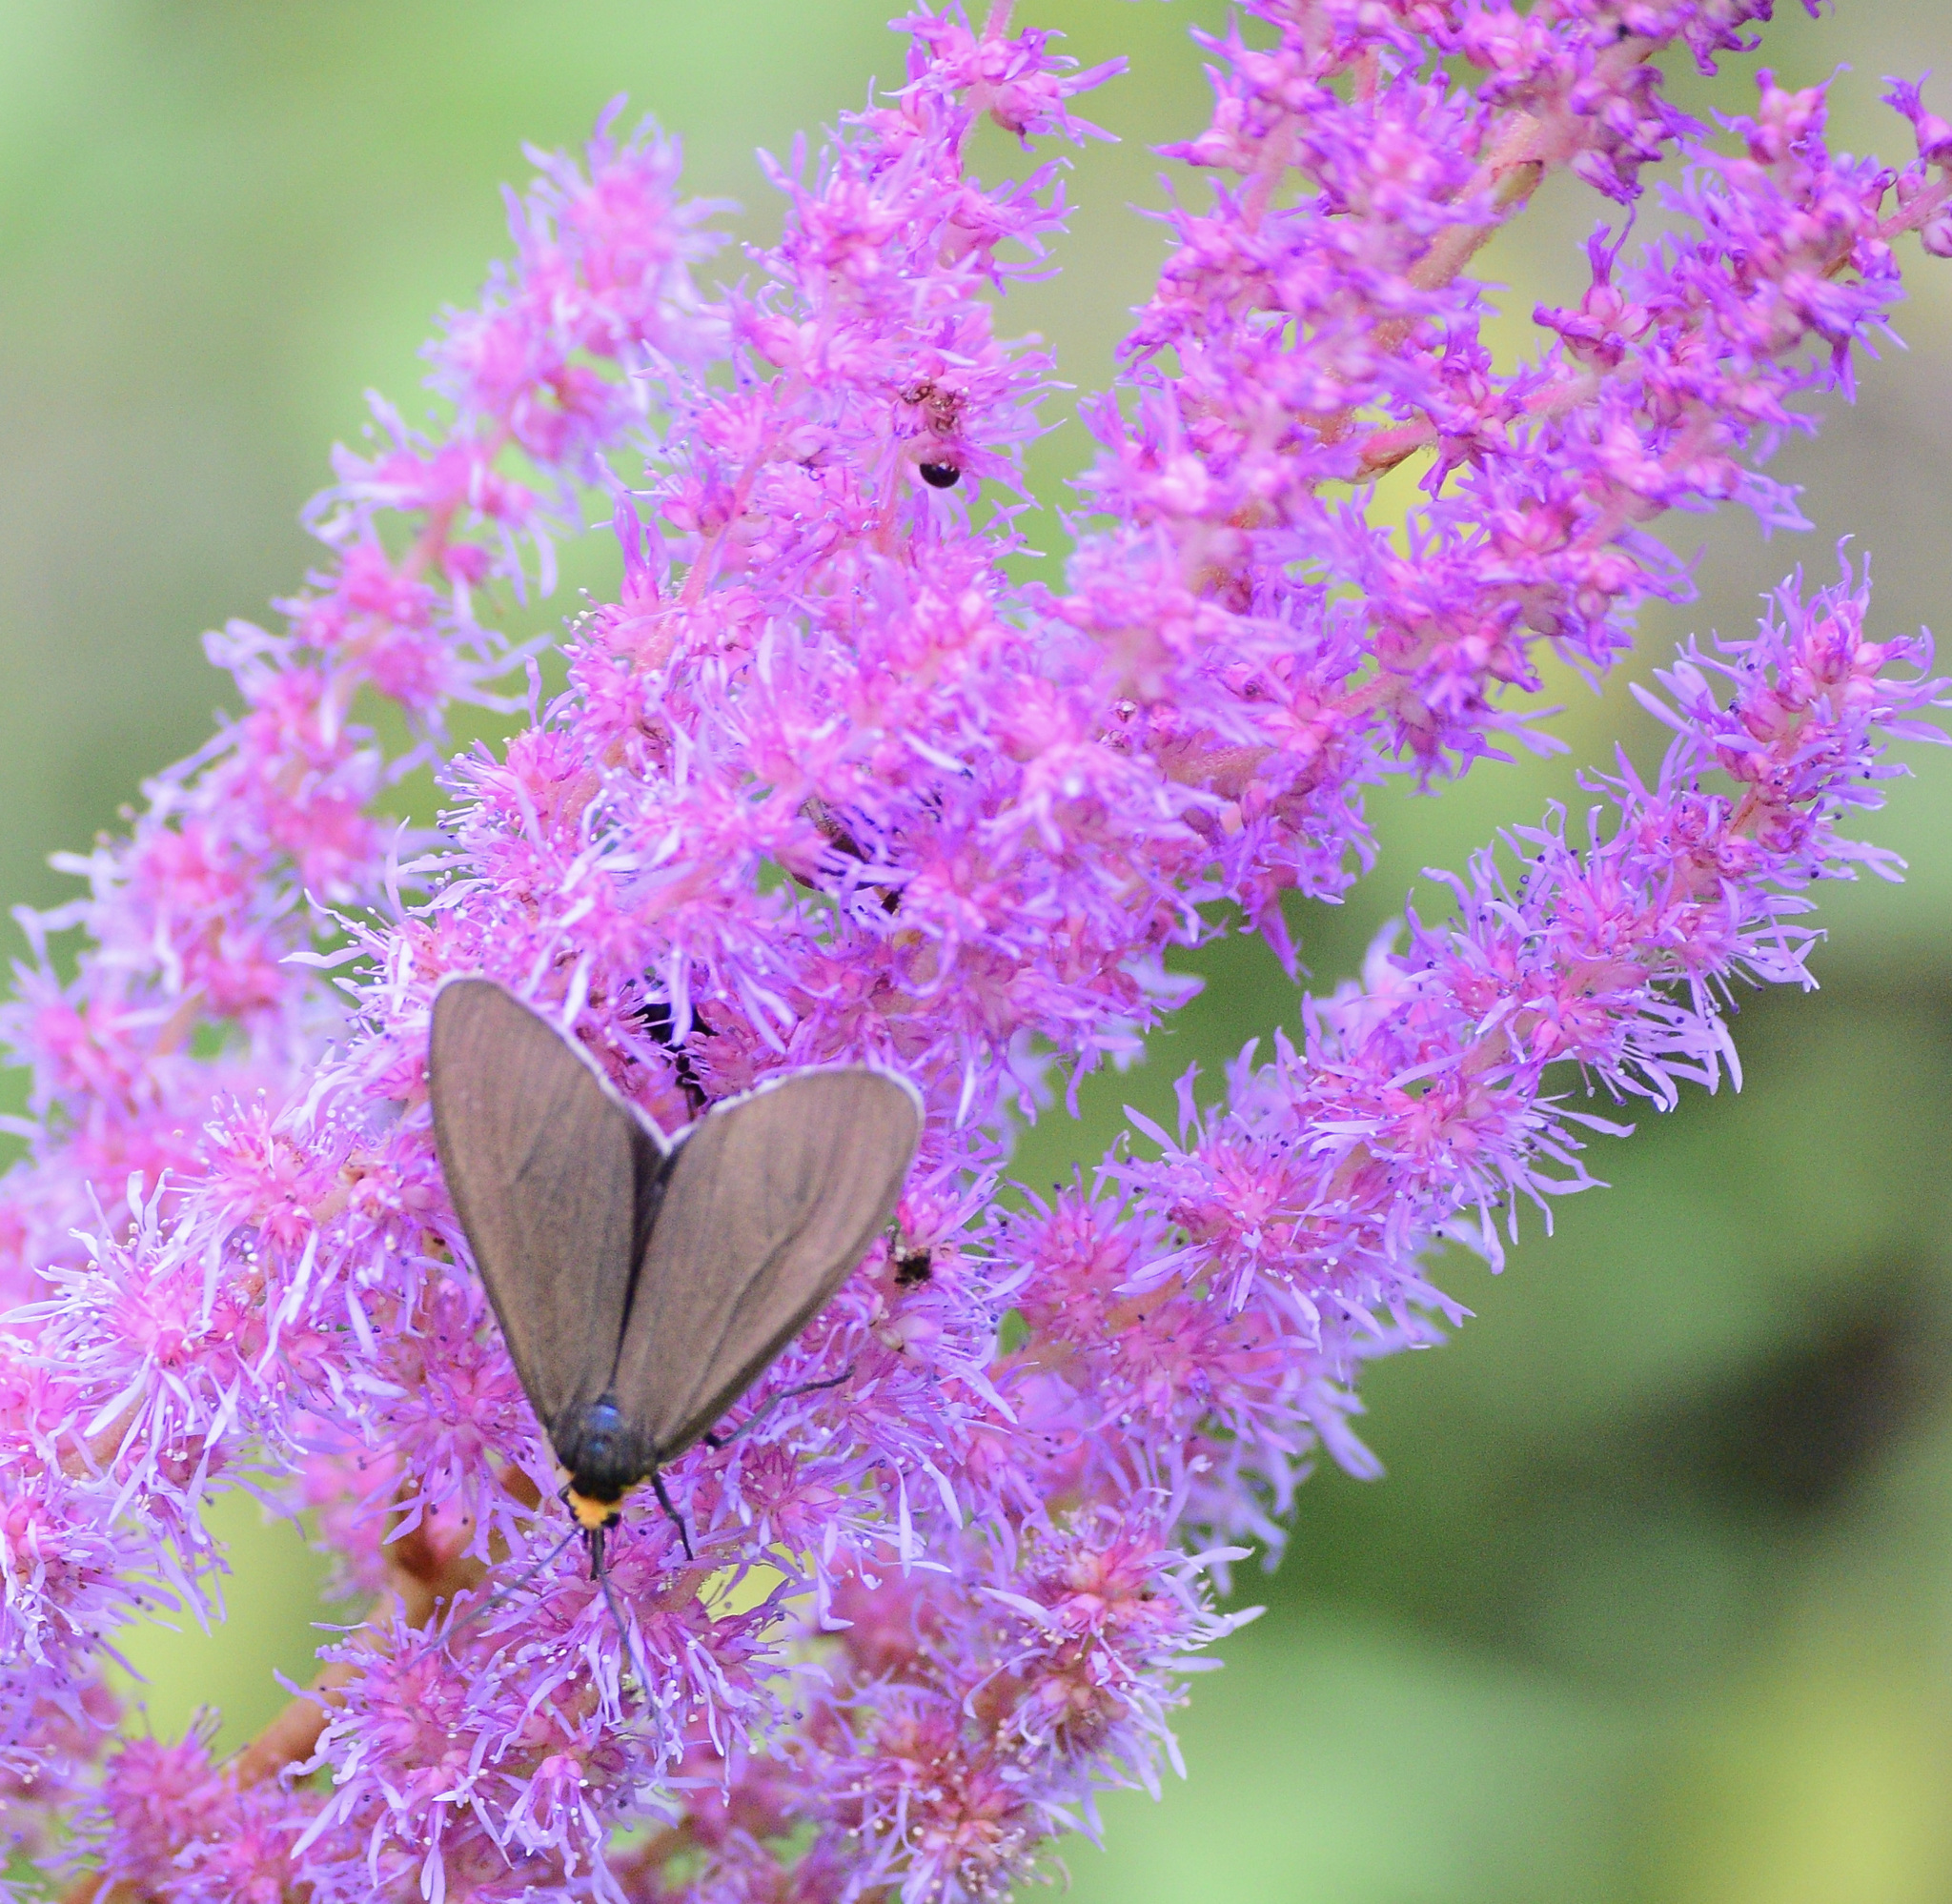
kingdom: Animalia
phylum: Arthropoda
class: Insecta
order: Lepidoptera
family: Erebidae
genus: Ctenucha
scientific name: Ctenucha virginica
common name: Virginia ctenucha moth
